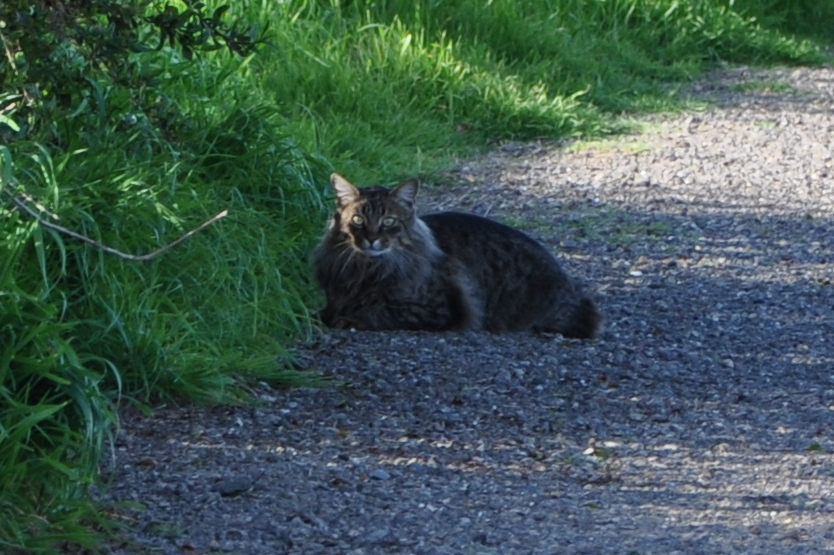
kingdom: Animalia
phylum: Chordata
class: Mammalia
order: Carnivora
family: Felidae
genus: Felis
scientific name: Felis catus
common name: Domestic cat
